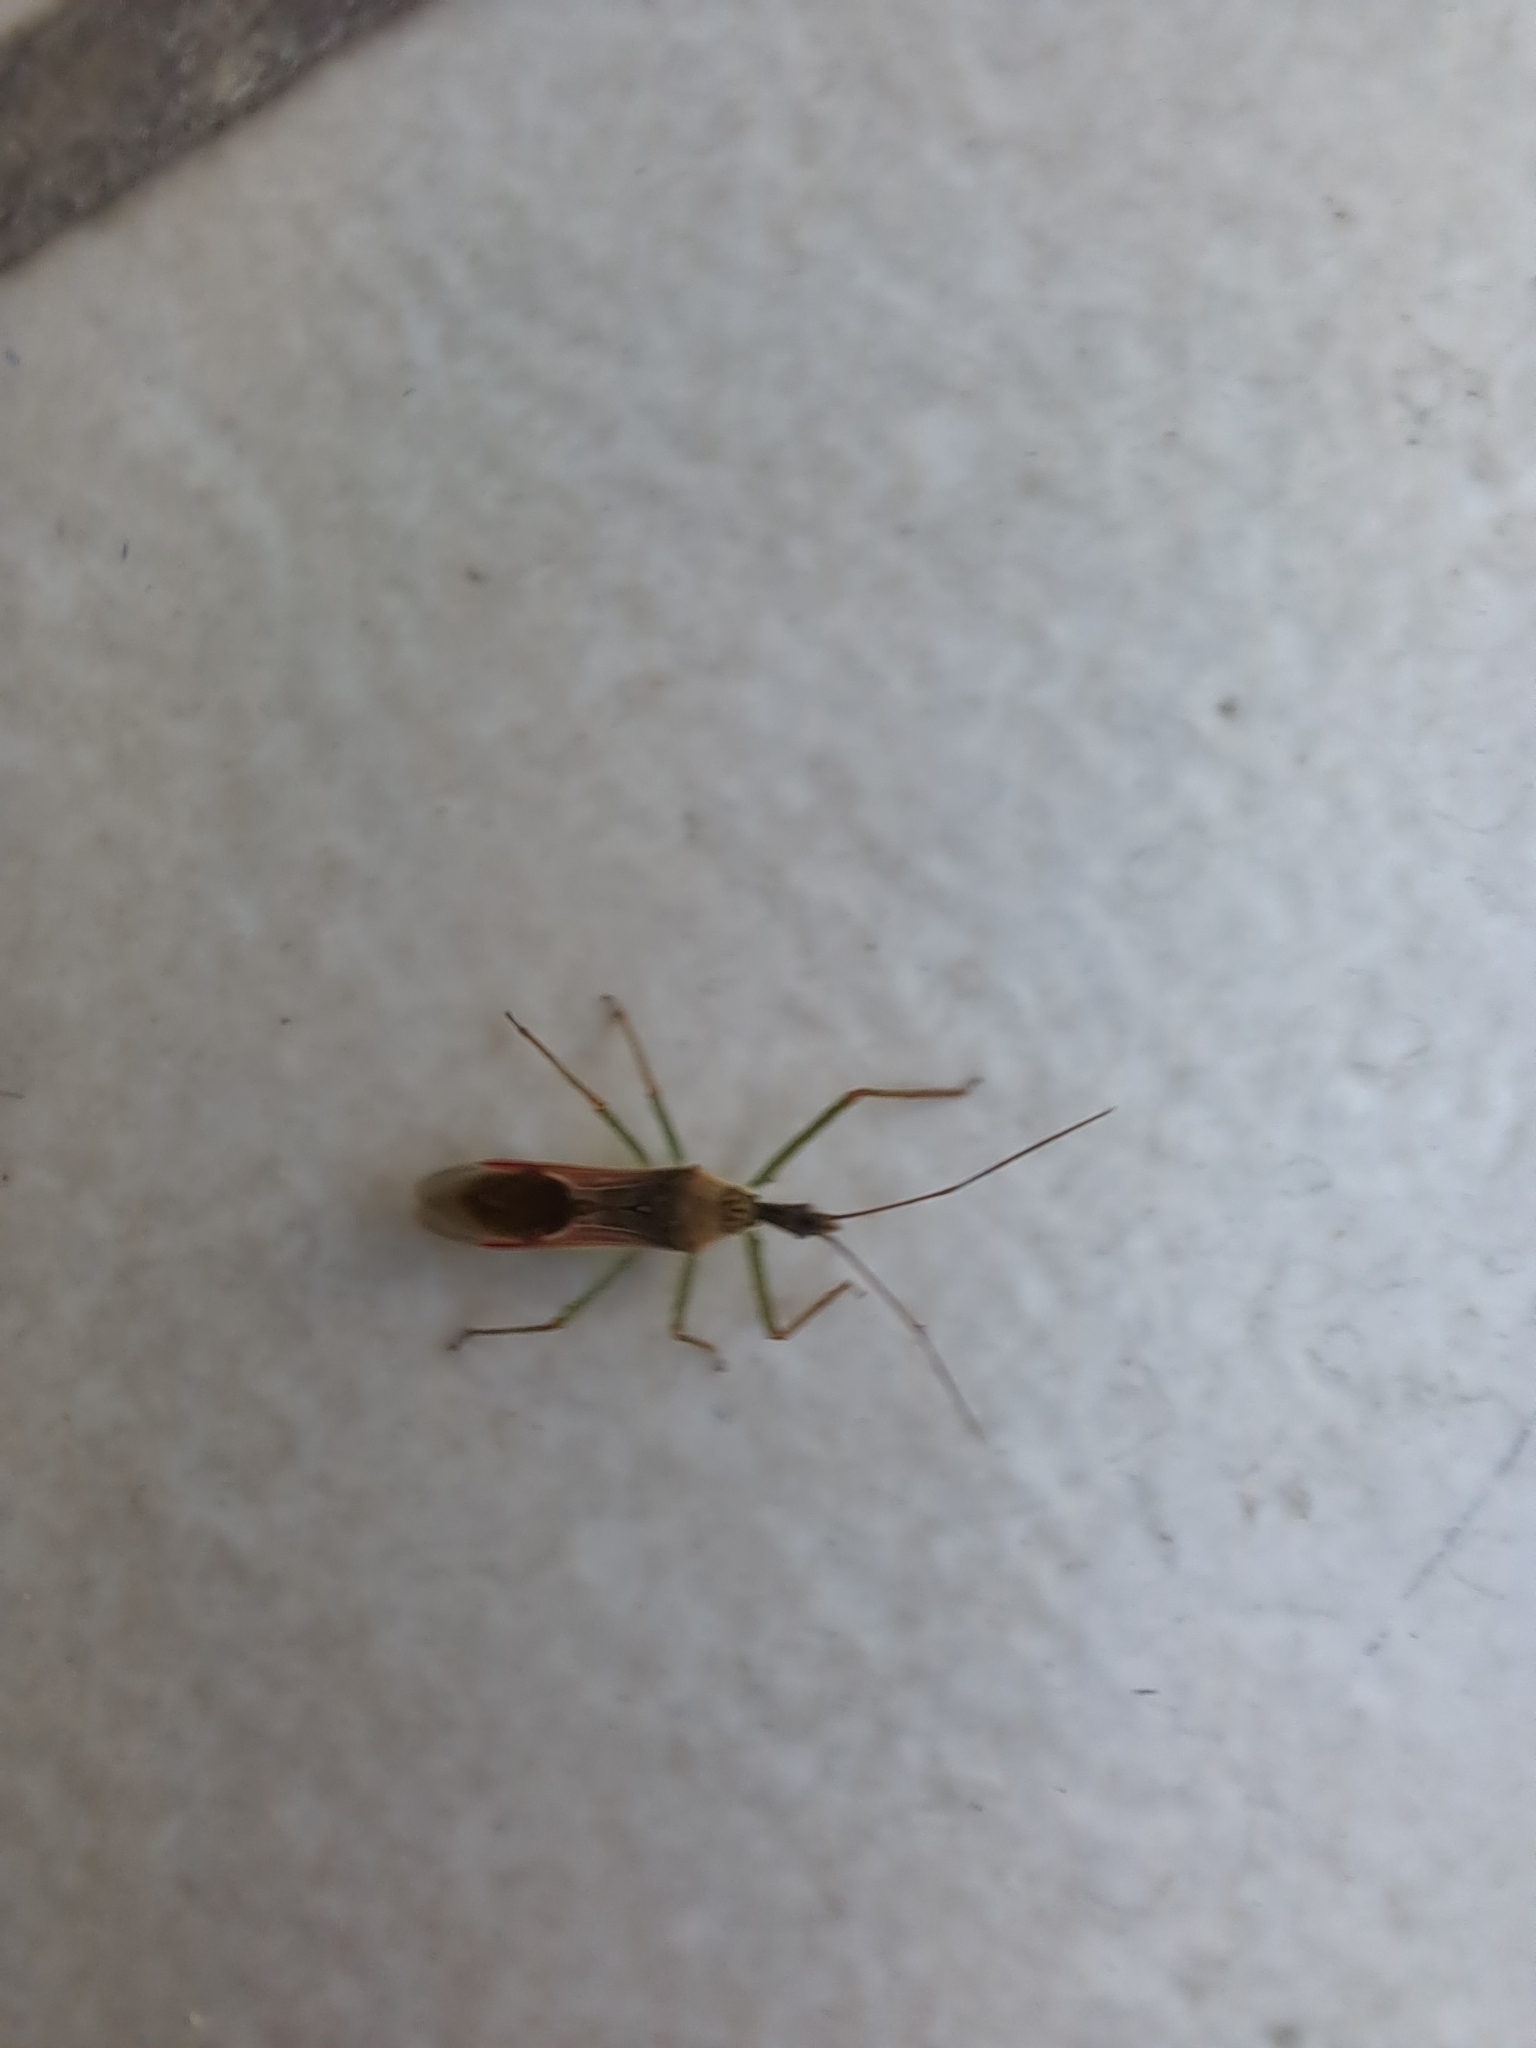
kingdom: Animalia
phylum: Arthropoda
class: Insecta
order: Hemiptera
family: Reduviidae
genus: Zelus
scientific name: Zelus renardii
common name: Assassin bug
